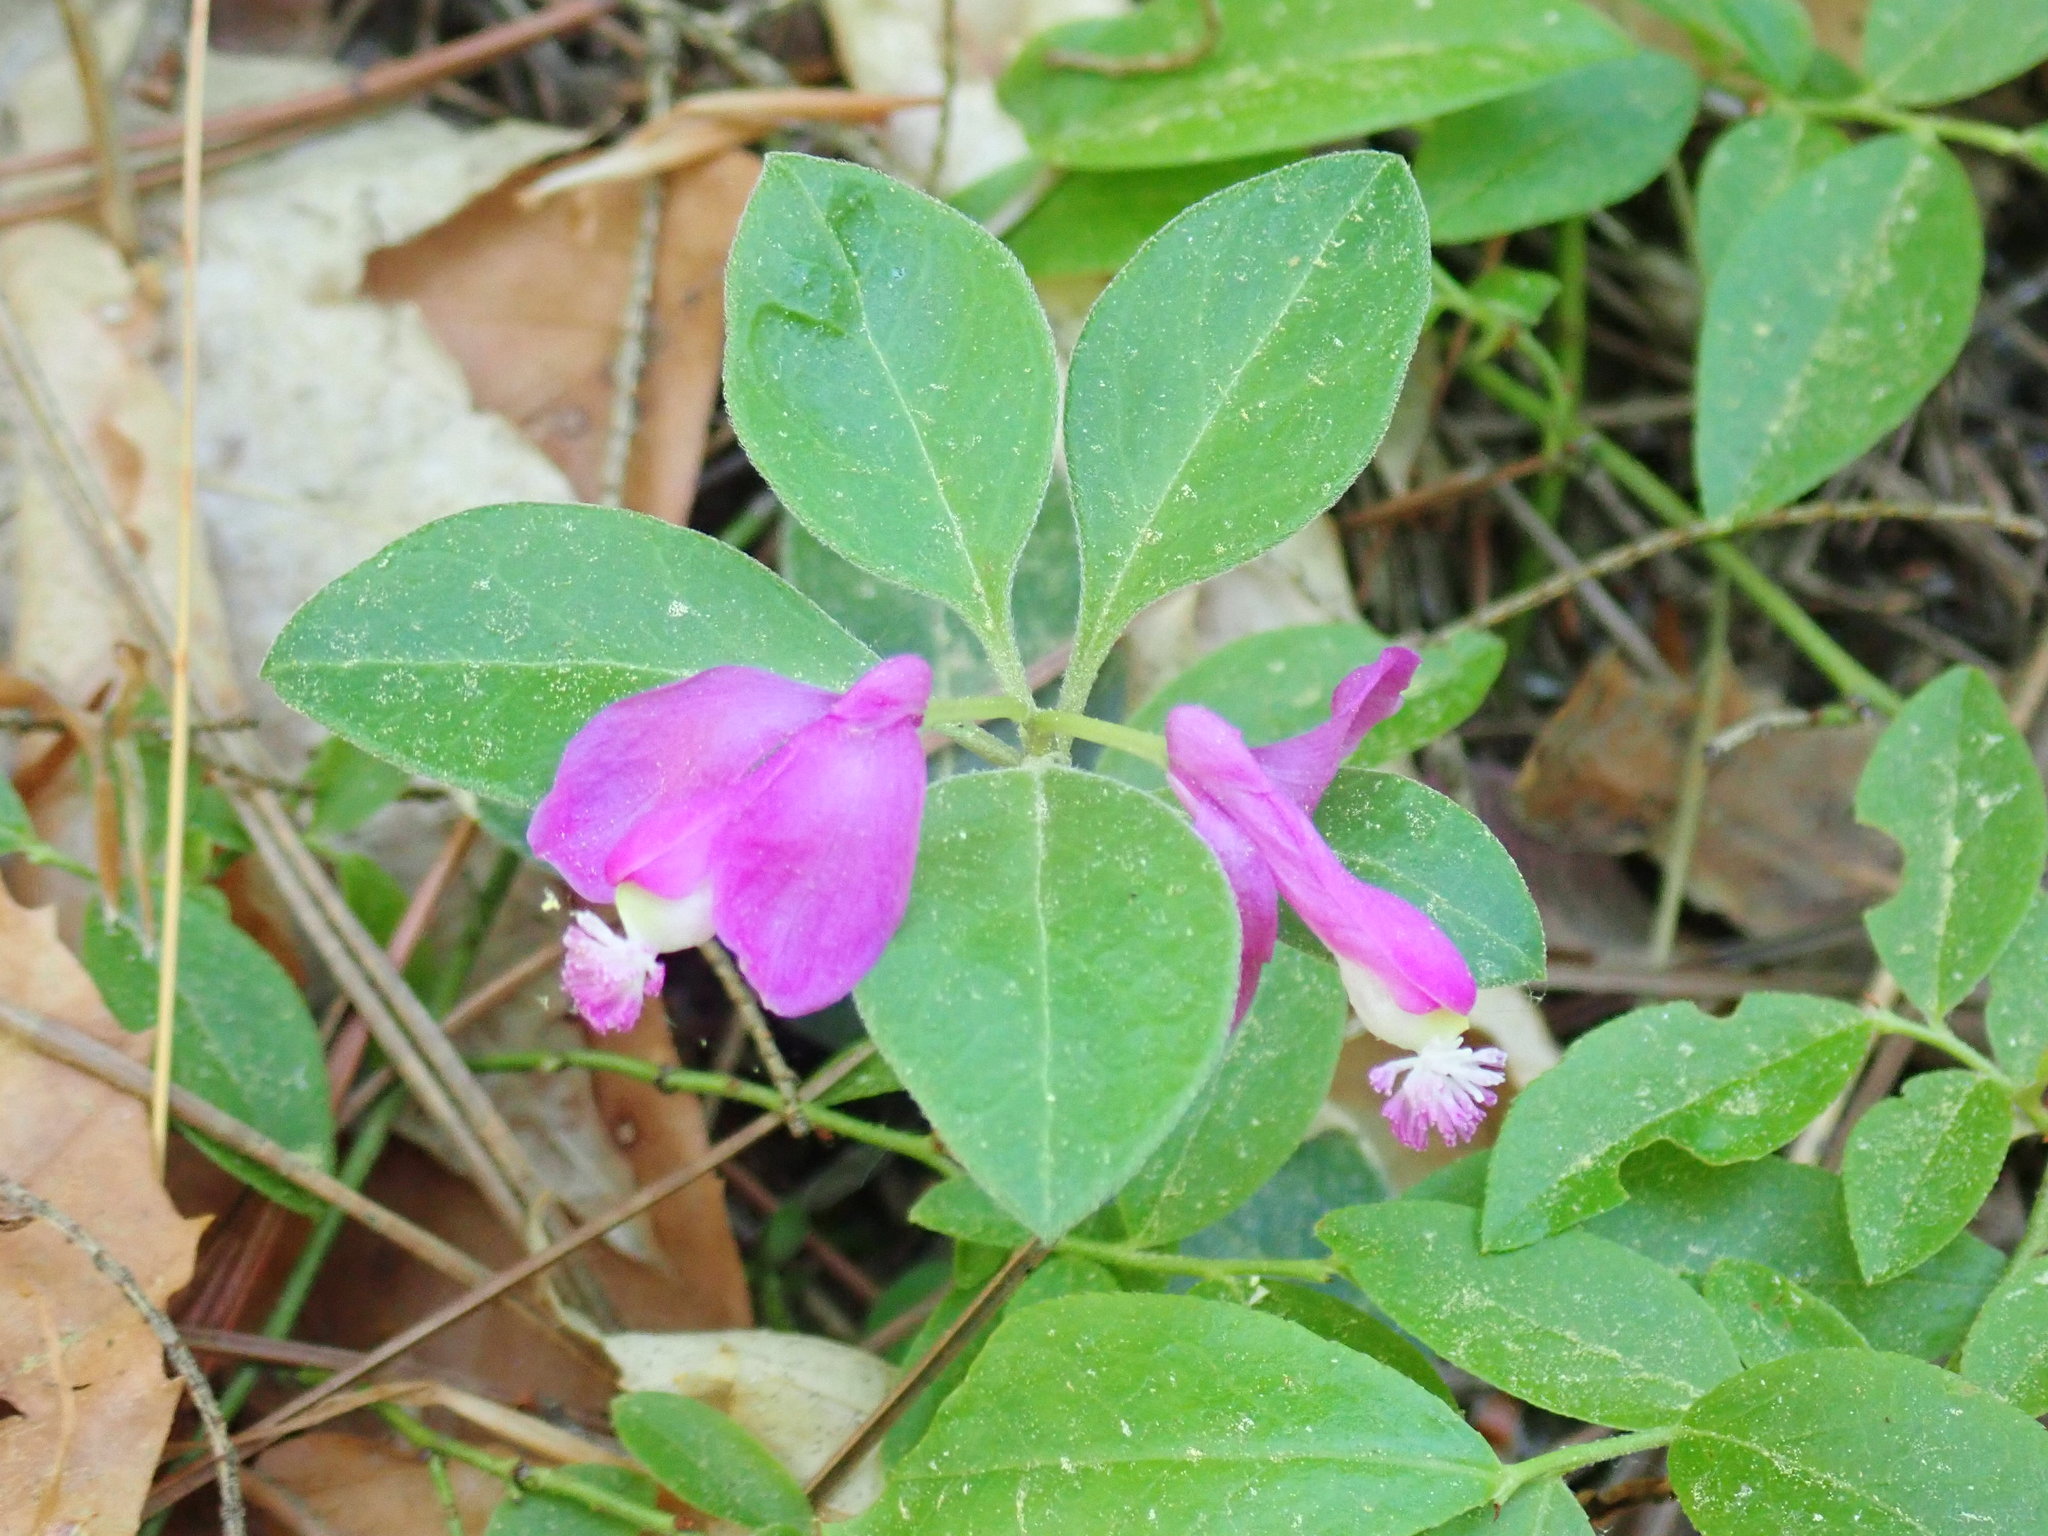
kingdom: Plantae
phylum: Tracheophyta
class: Magnoliopsida
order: Fabales
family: Polygalaceae
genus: Polygaloides
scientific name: Polygaloides paucifolia
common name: Bird-on-the-wing
